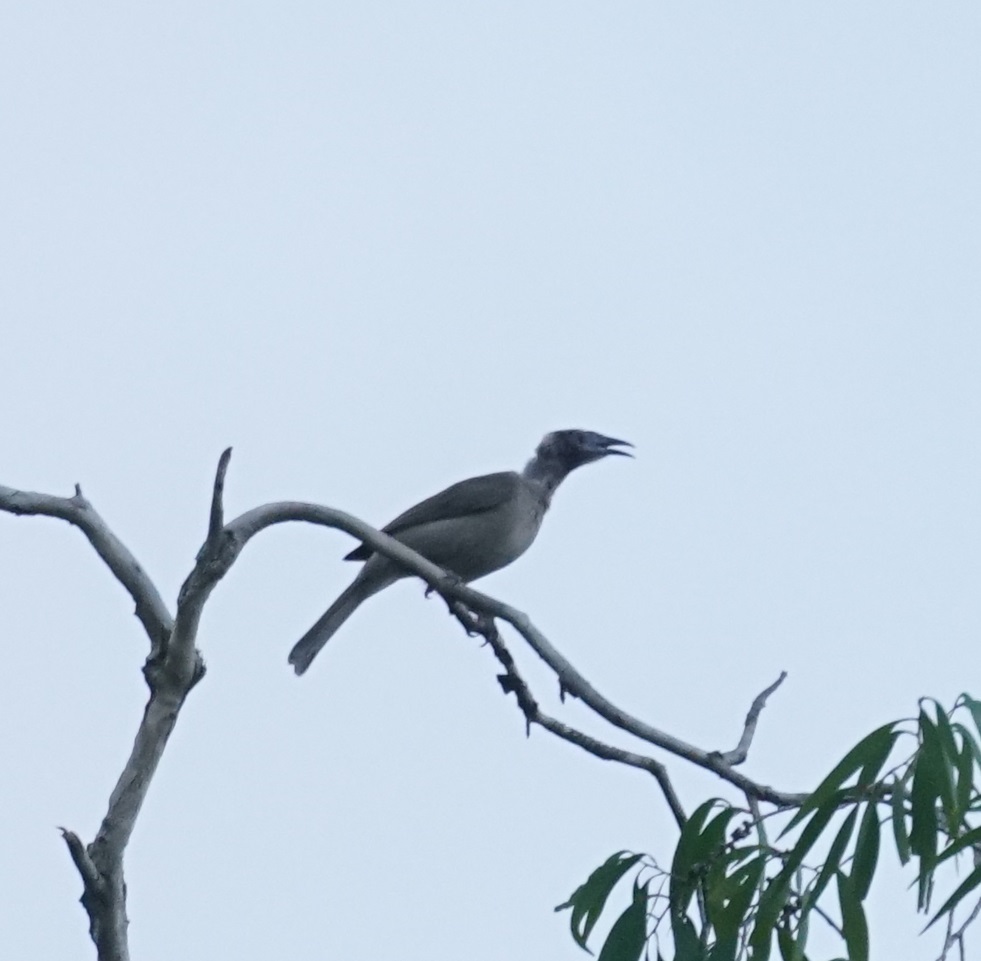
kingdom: Animalia
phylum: Chordata
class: Aves
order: Passeriformes
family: Meliphagidae
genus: Philemon
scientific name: Philemon buceroides
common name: Helmeted friarbird
